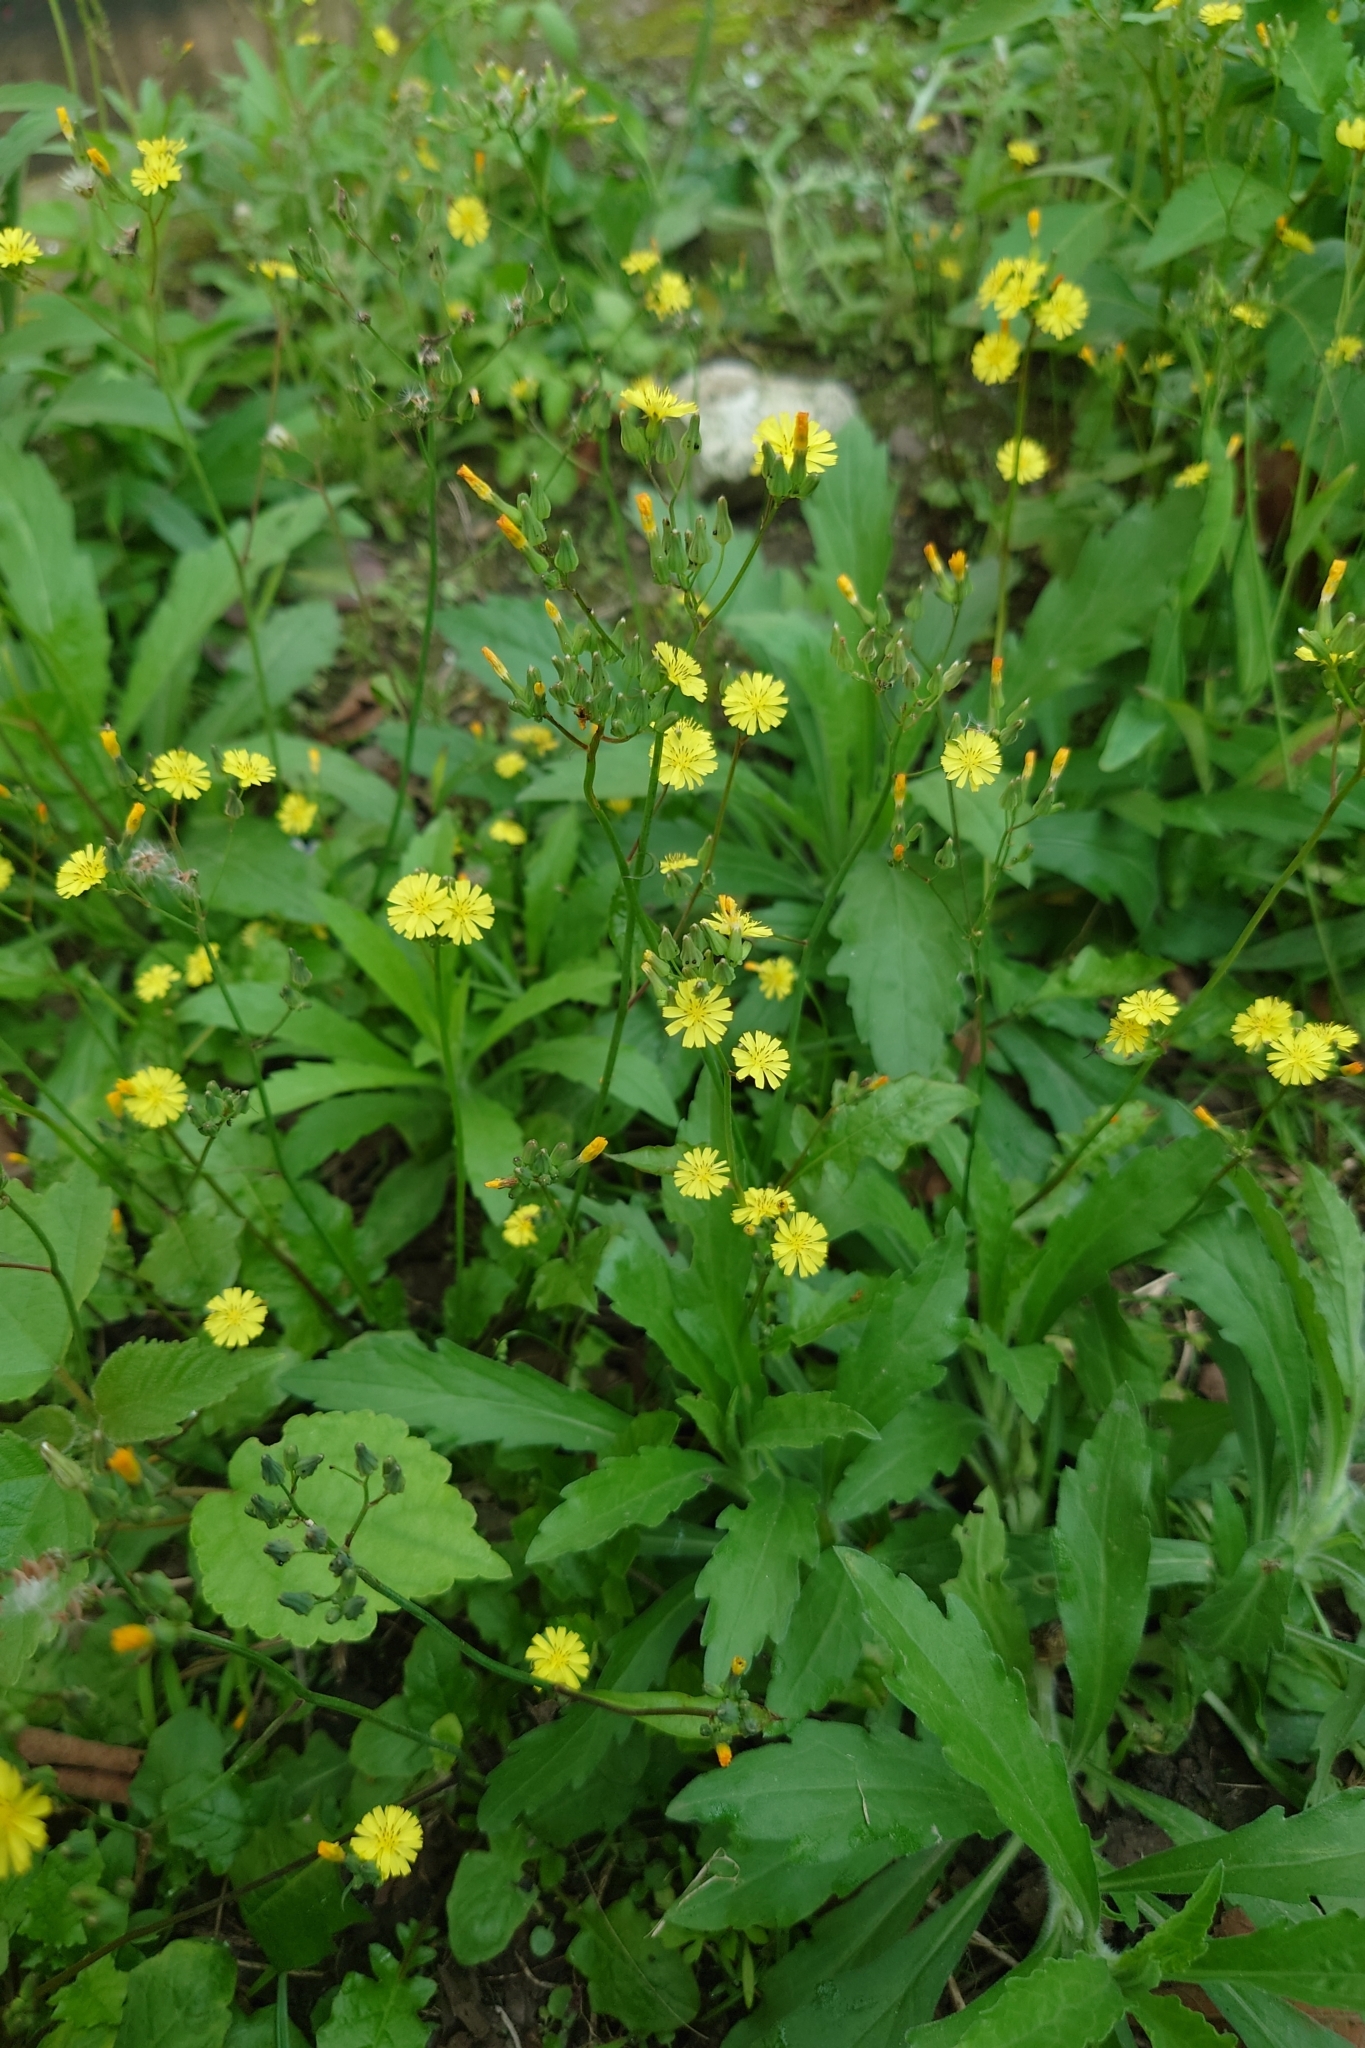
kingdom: Plantae
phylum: Tracheophyta
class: Magnoliopsida
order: Asterales
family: Asteraceae
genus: Youngia
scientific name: Youngia japonica
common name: Oriental false hawksbeard
